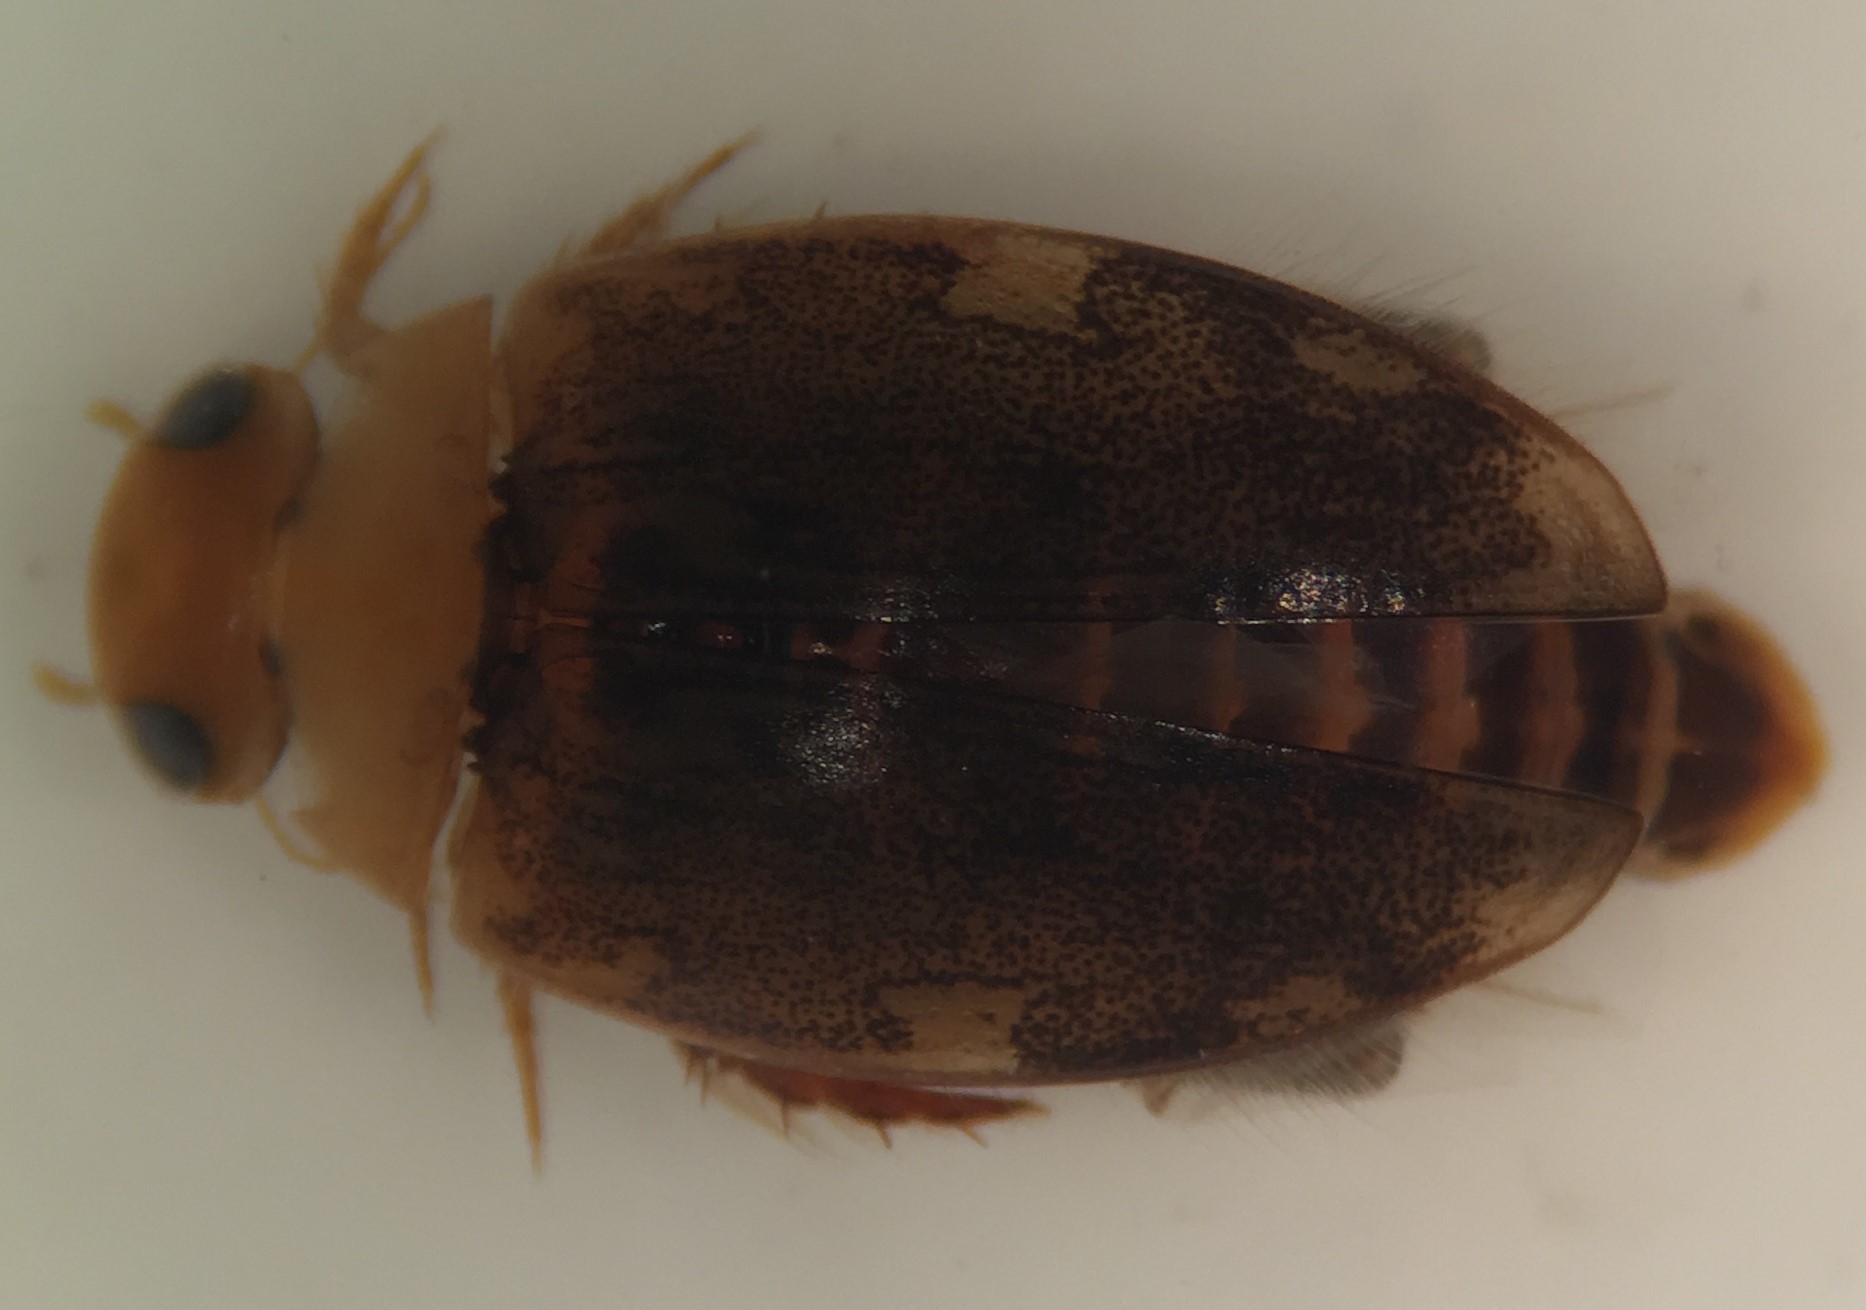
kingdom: Animalia
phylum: Arthropoda
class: Insecta
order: Coleoptera
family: Dytiscidae
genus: Laccophilus
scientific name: Laccophilus proximus
